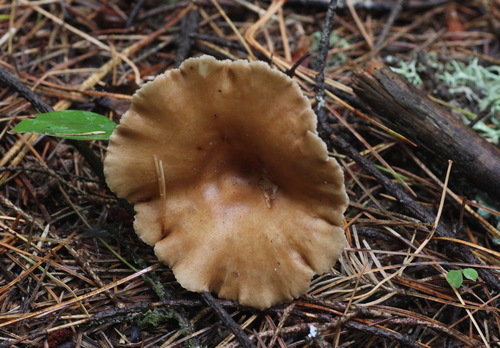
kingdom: Fungi
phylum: Basidiomycota
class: Agaricomycetes
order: Agaricales
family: Tricholomataceae
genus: Infundibulicybe
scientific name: Infundibulicybe gibba
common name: Common funnel
